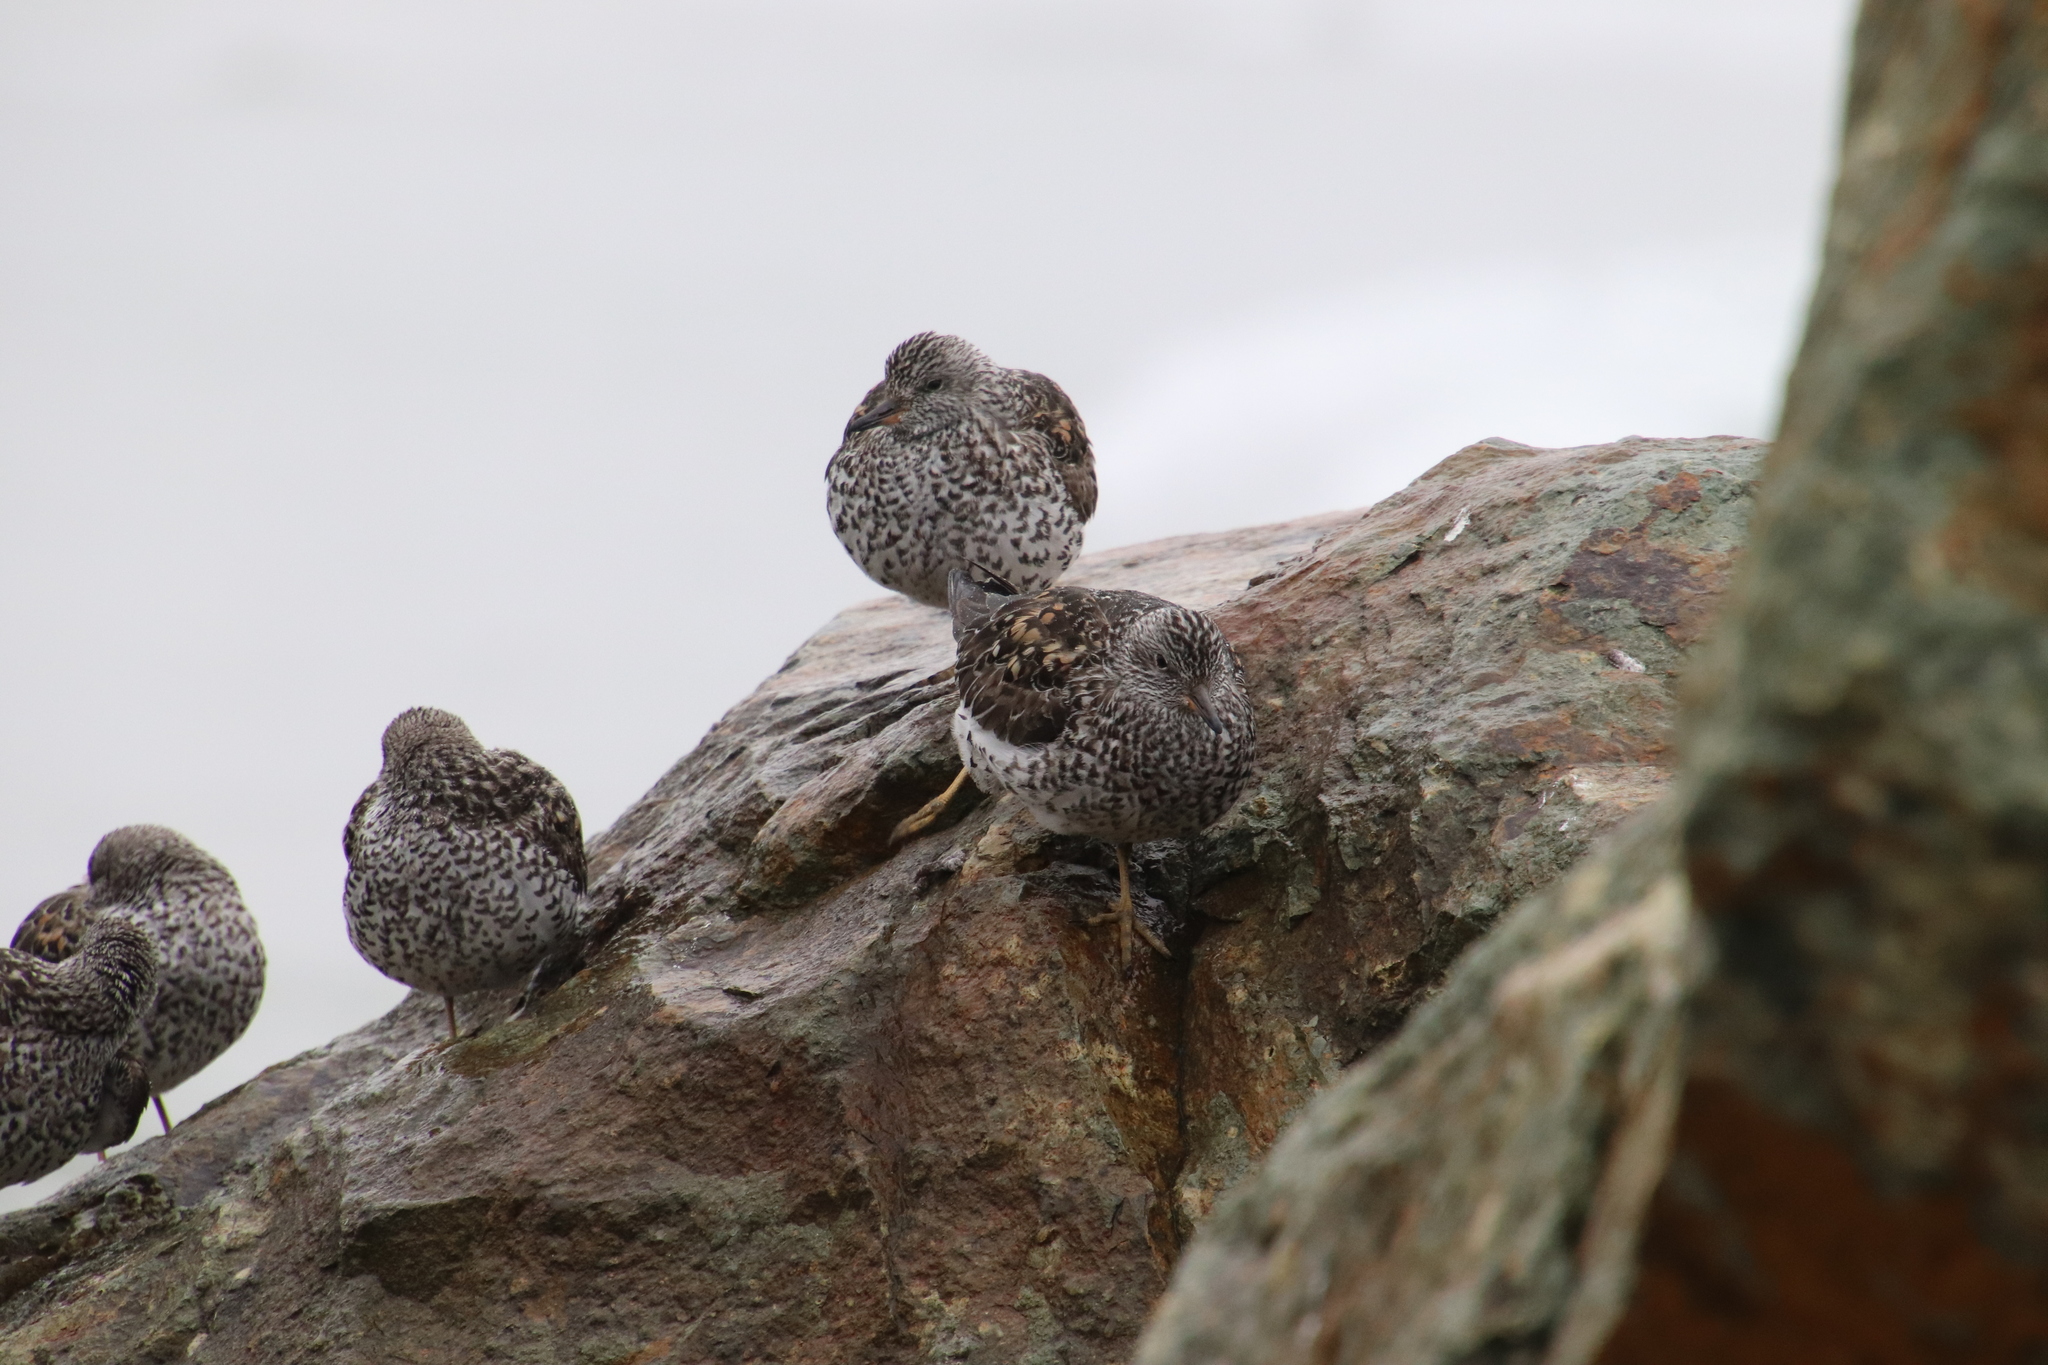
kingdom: Animalia
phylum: Chordata
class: Aves
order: Charadriiformes
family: Scolopacidae
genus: Calidris
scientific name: Calidris virgata
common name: Surfbird
